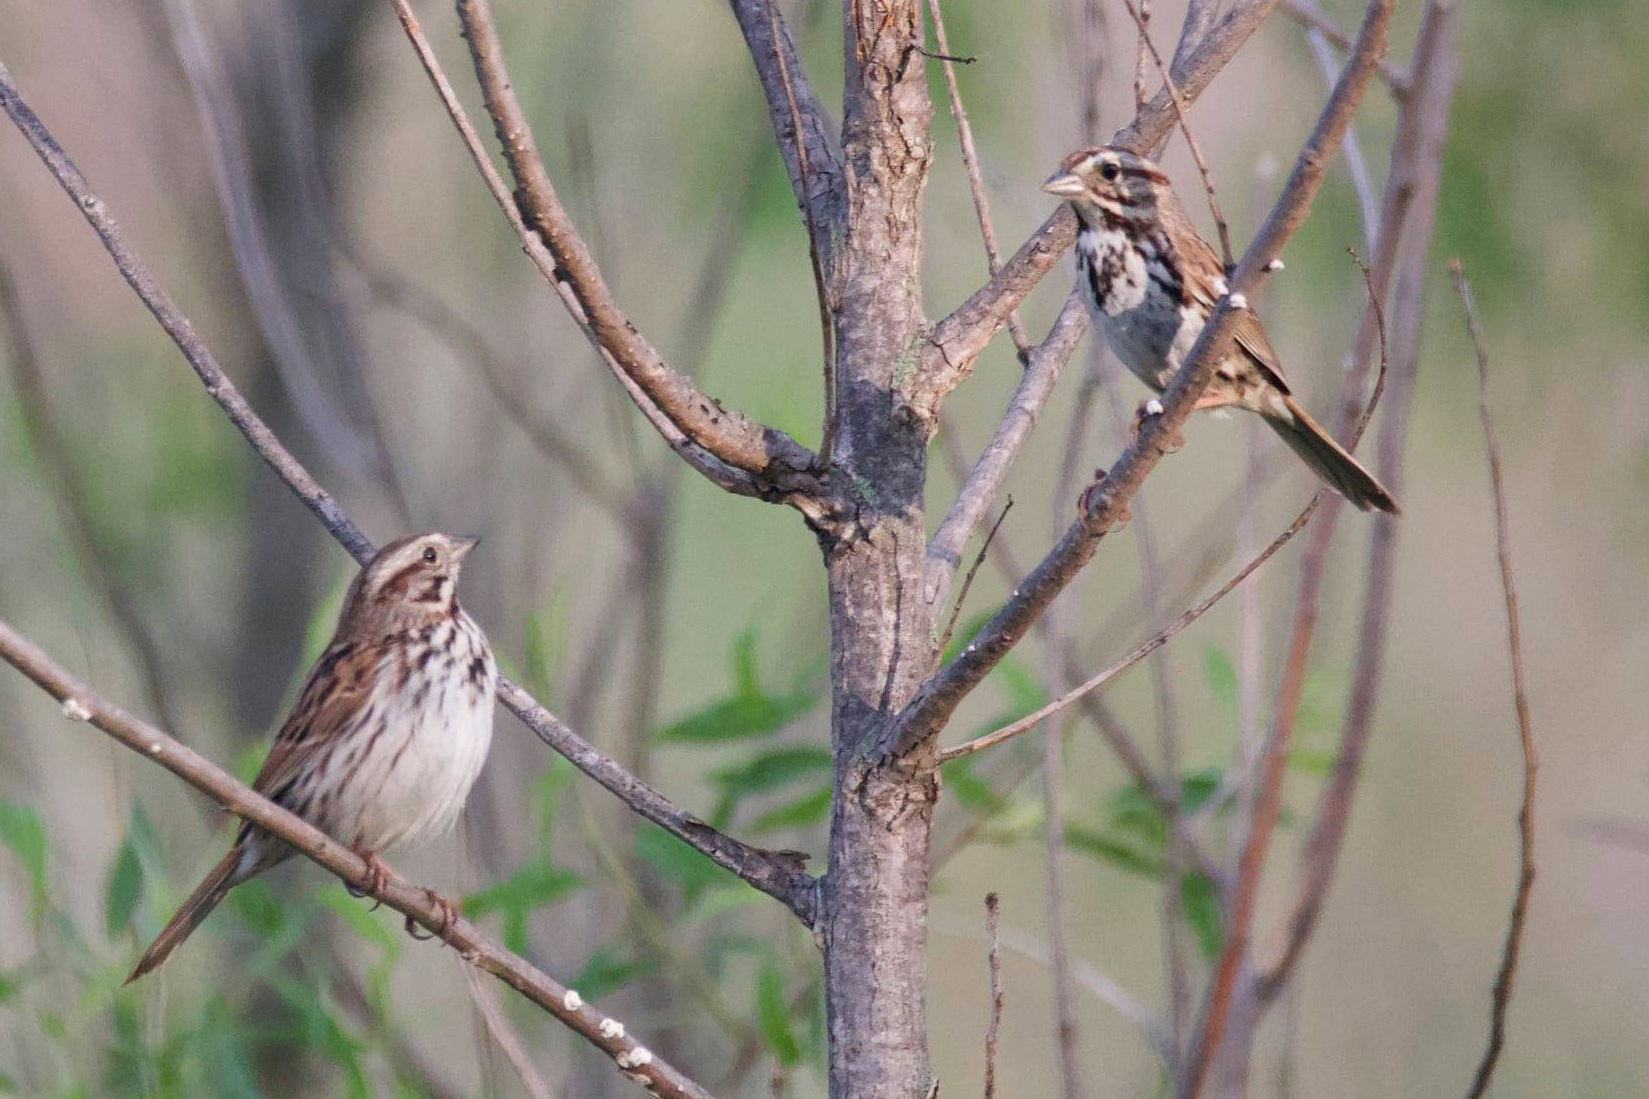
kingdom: Animalia
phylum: Chordata
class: Aves
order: Passeriformes
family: Passerellidae
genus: Melospiza
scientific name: Melospiza melodia
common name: Song sparrow
